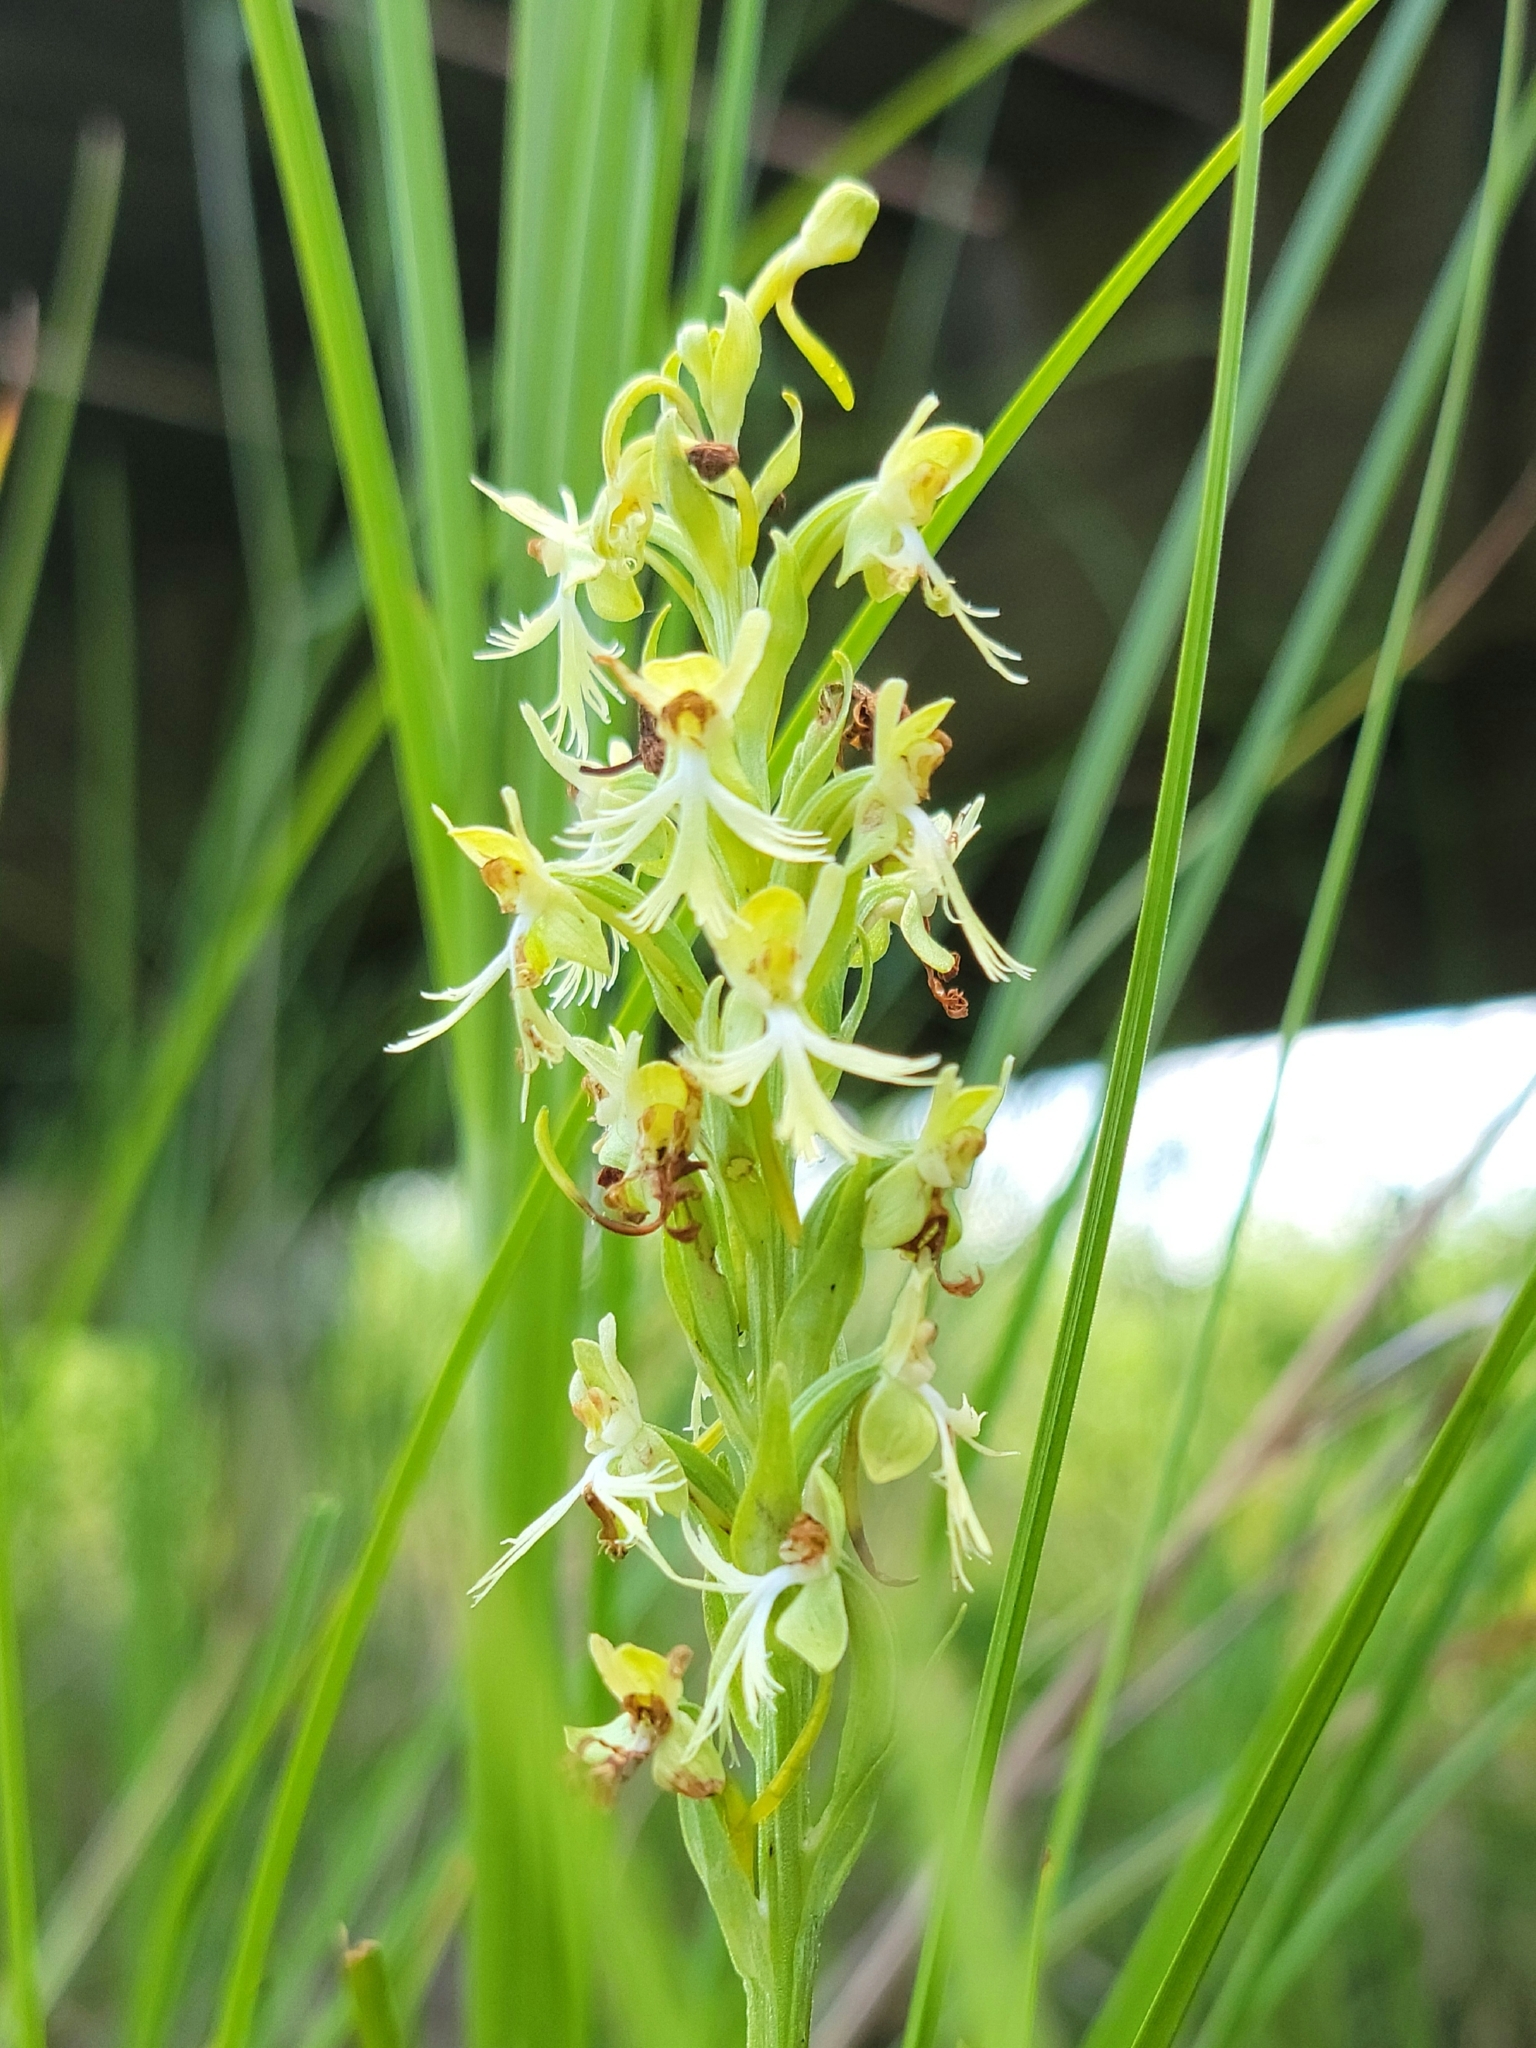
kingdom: Plantae
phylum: Tracheophyta
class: Liliopsida
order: Asparagales
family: Orchidaceae
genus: Platanthera
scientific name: Platanthera lacera
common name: Green fringed orchid
